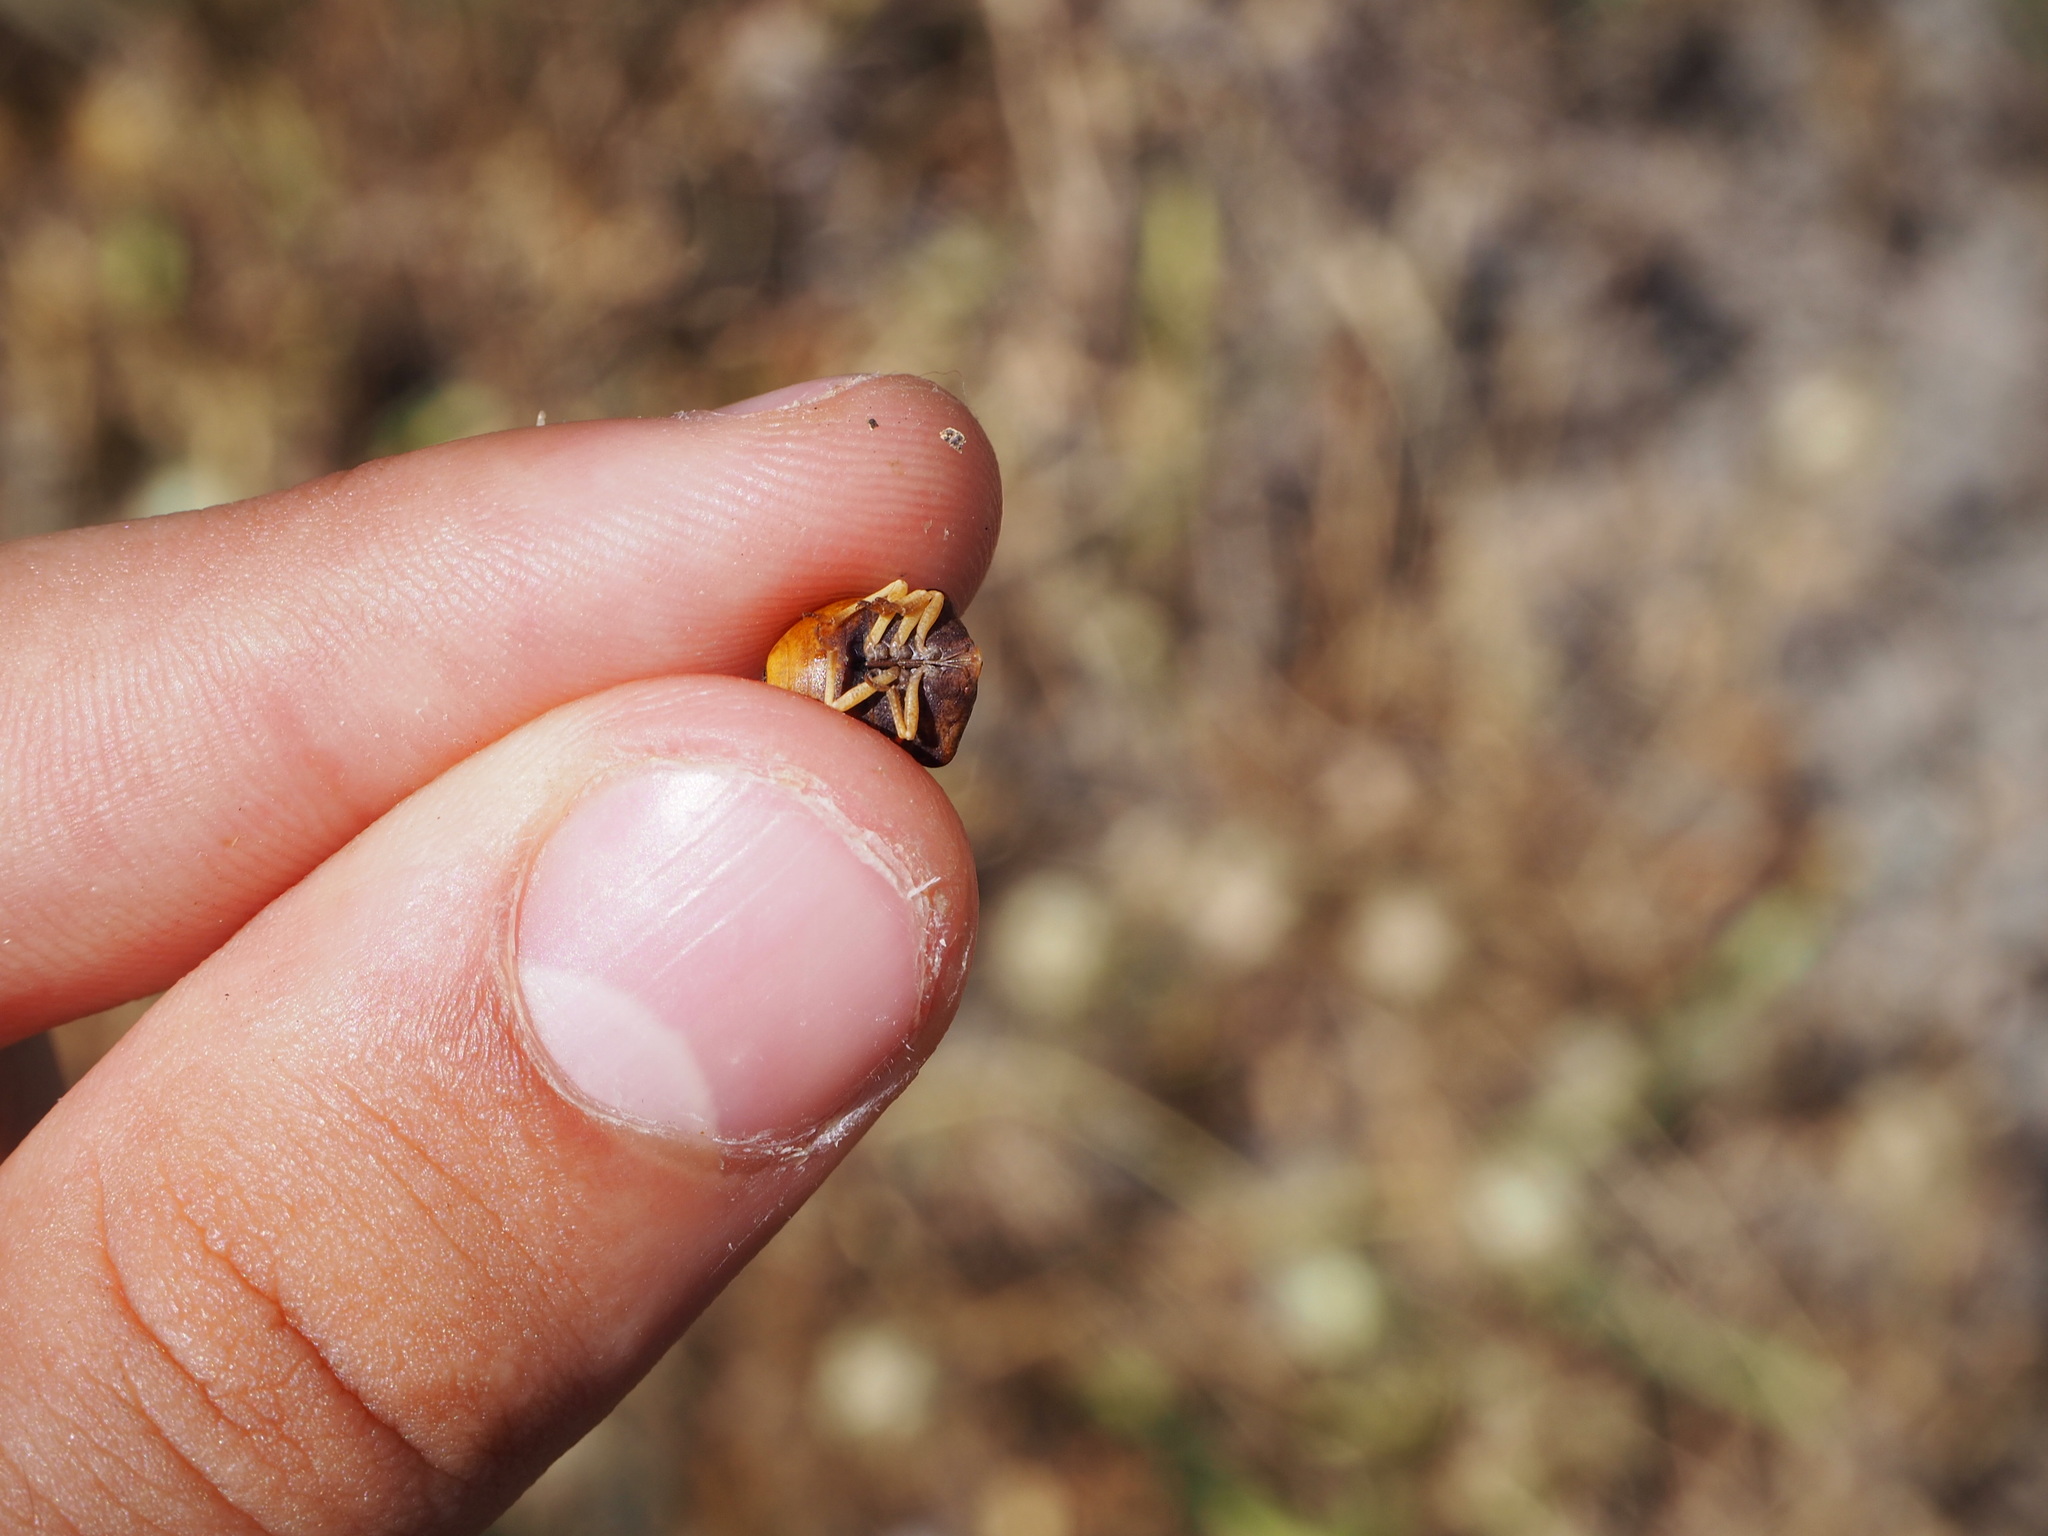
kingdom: Animalia
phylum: Arthropoda
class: Insecta
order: Hemiptera
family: Pentatomidae
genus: Ventocoris
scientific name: Ventocoris rusticus
